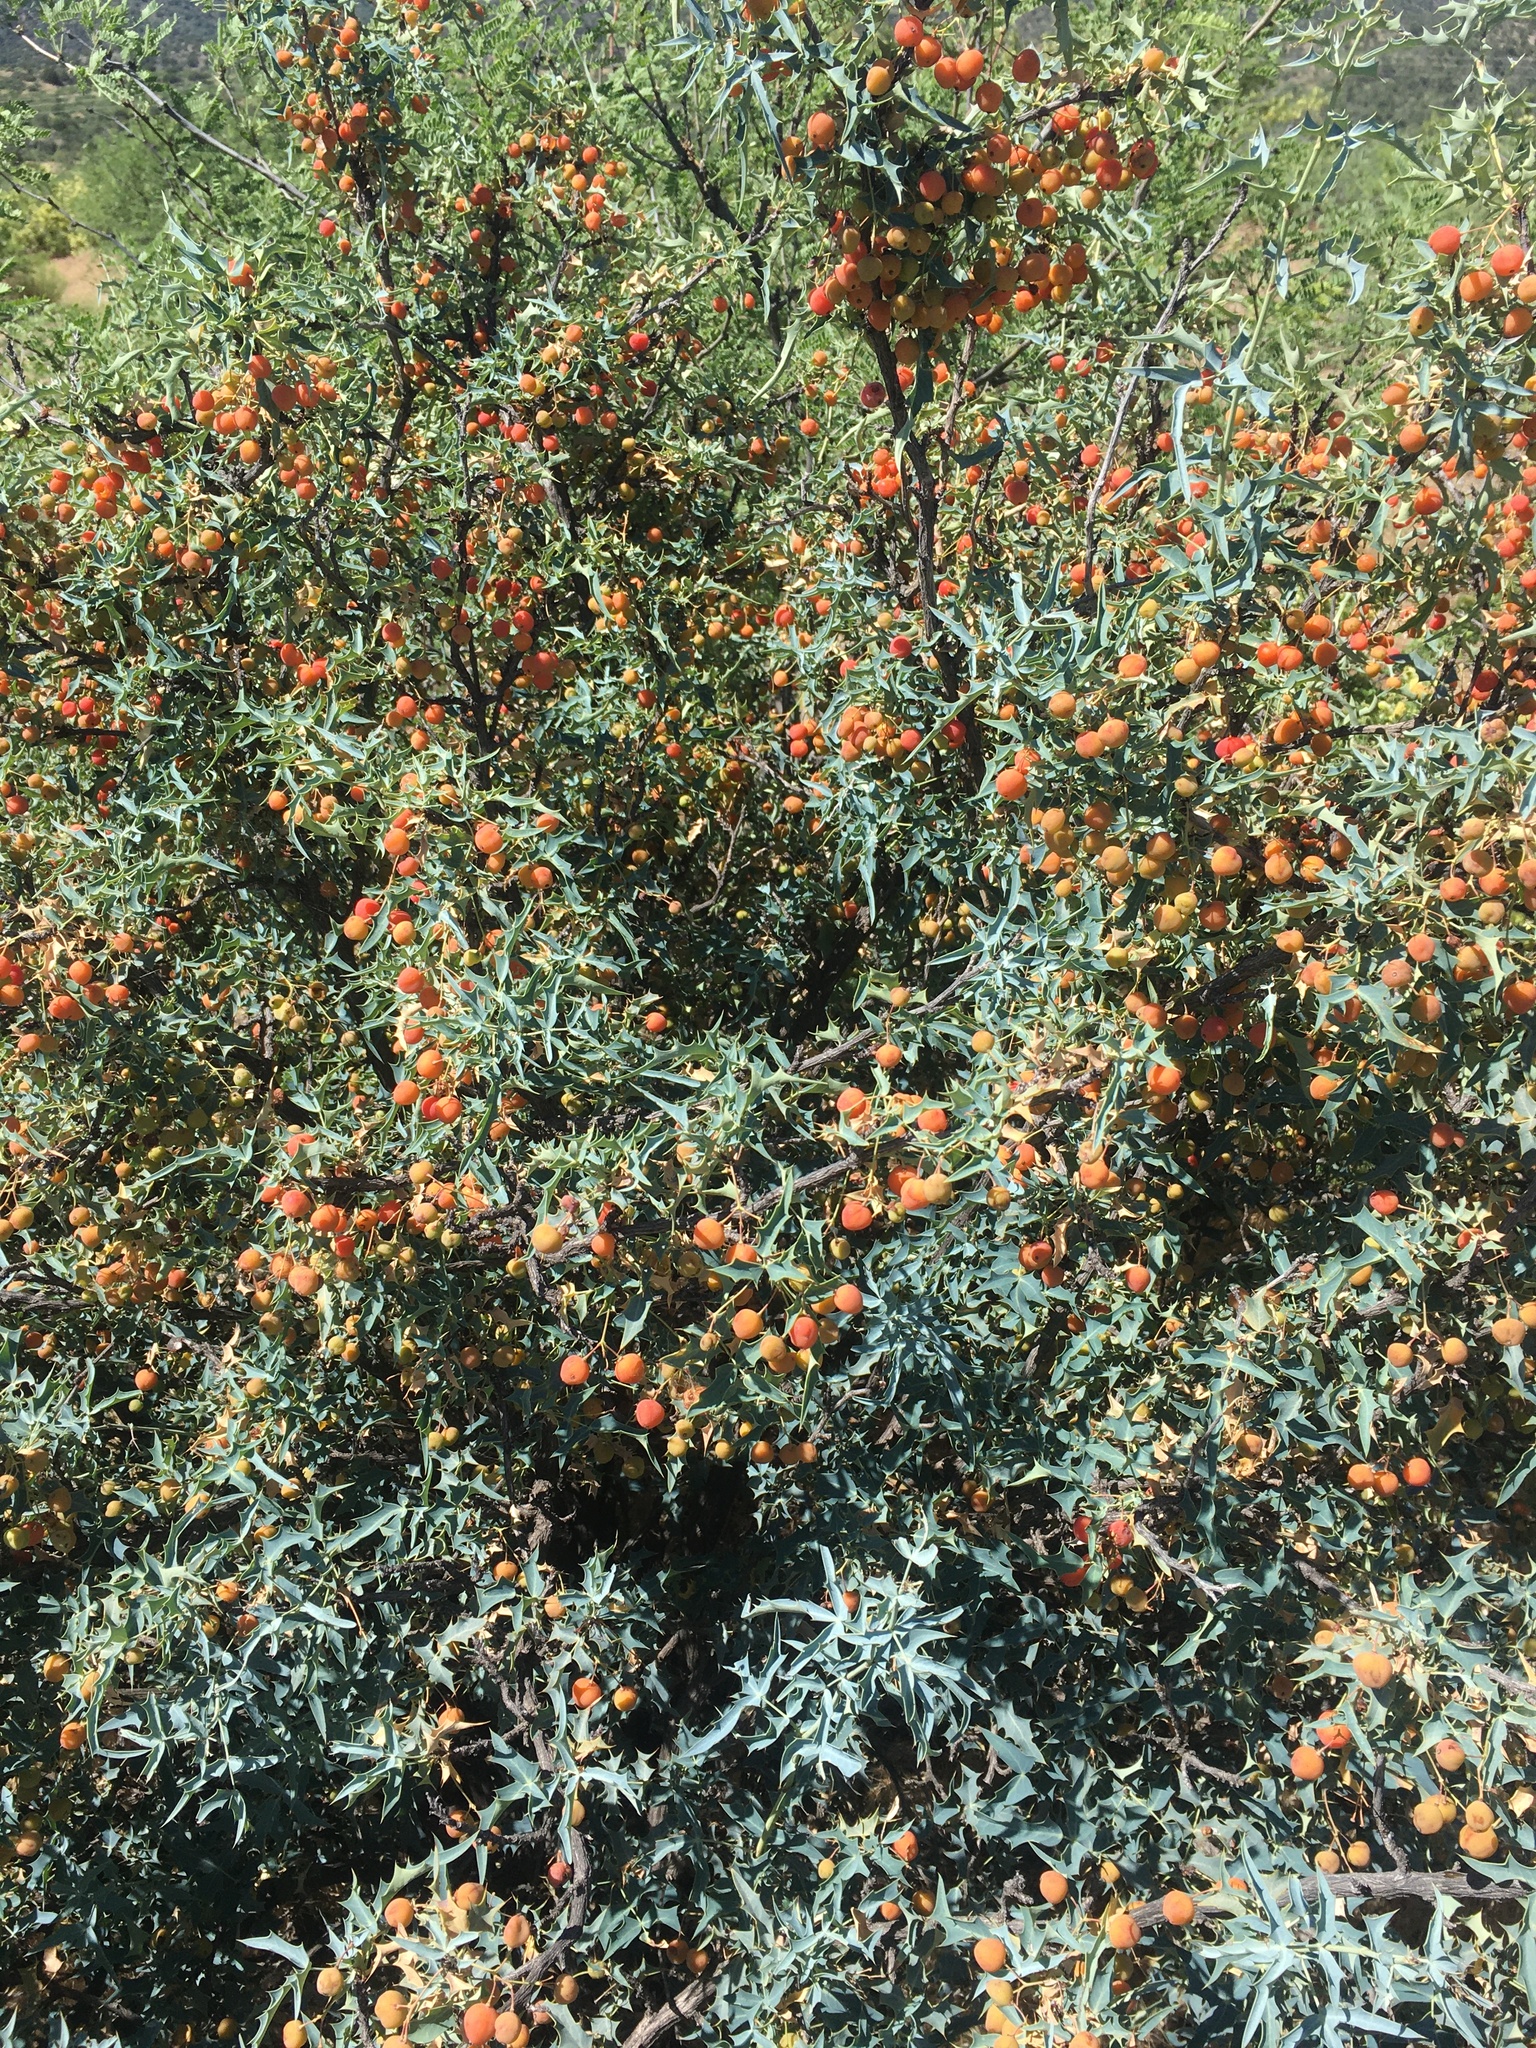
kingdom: Plantae
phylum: Tracheophyta
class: Magnoliopsida
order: Ranunculales
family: Berberidaceae
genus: Alloberberis
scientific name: Alloberberis haematocarpa
